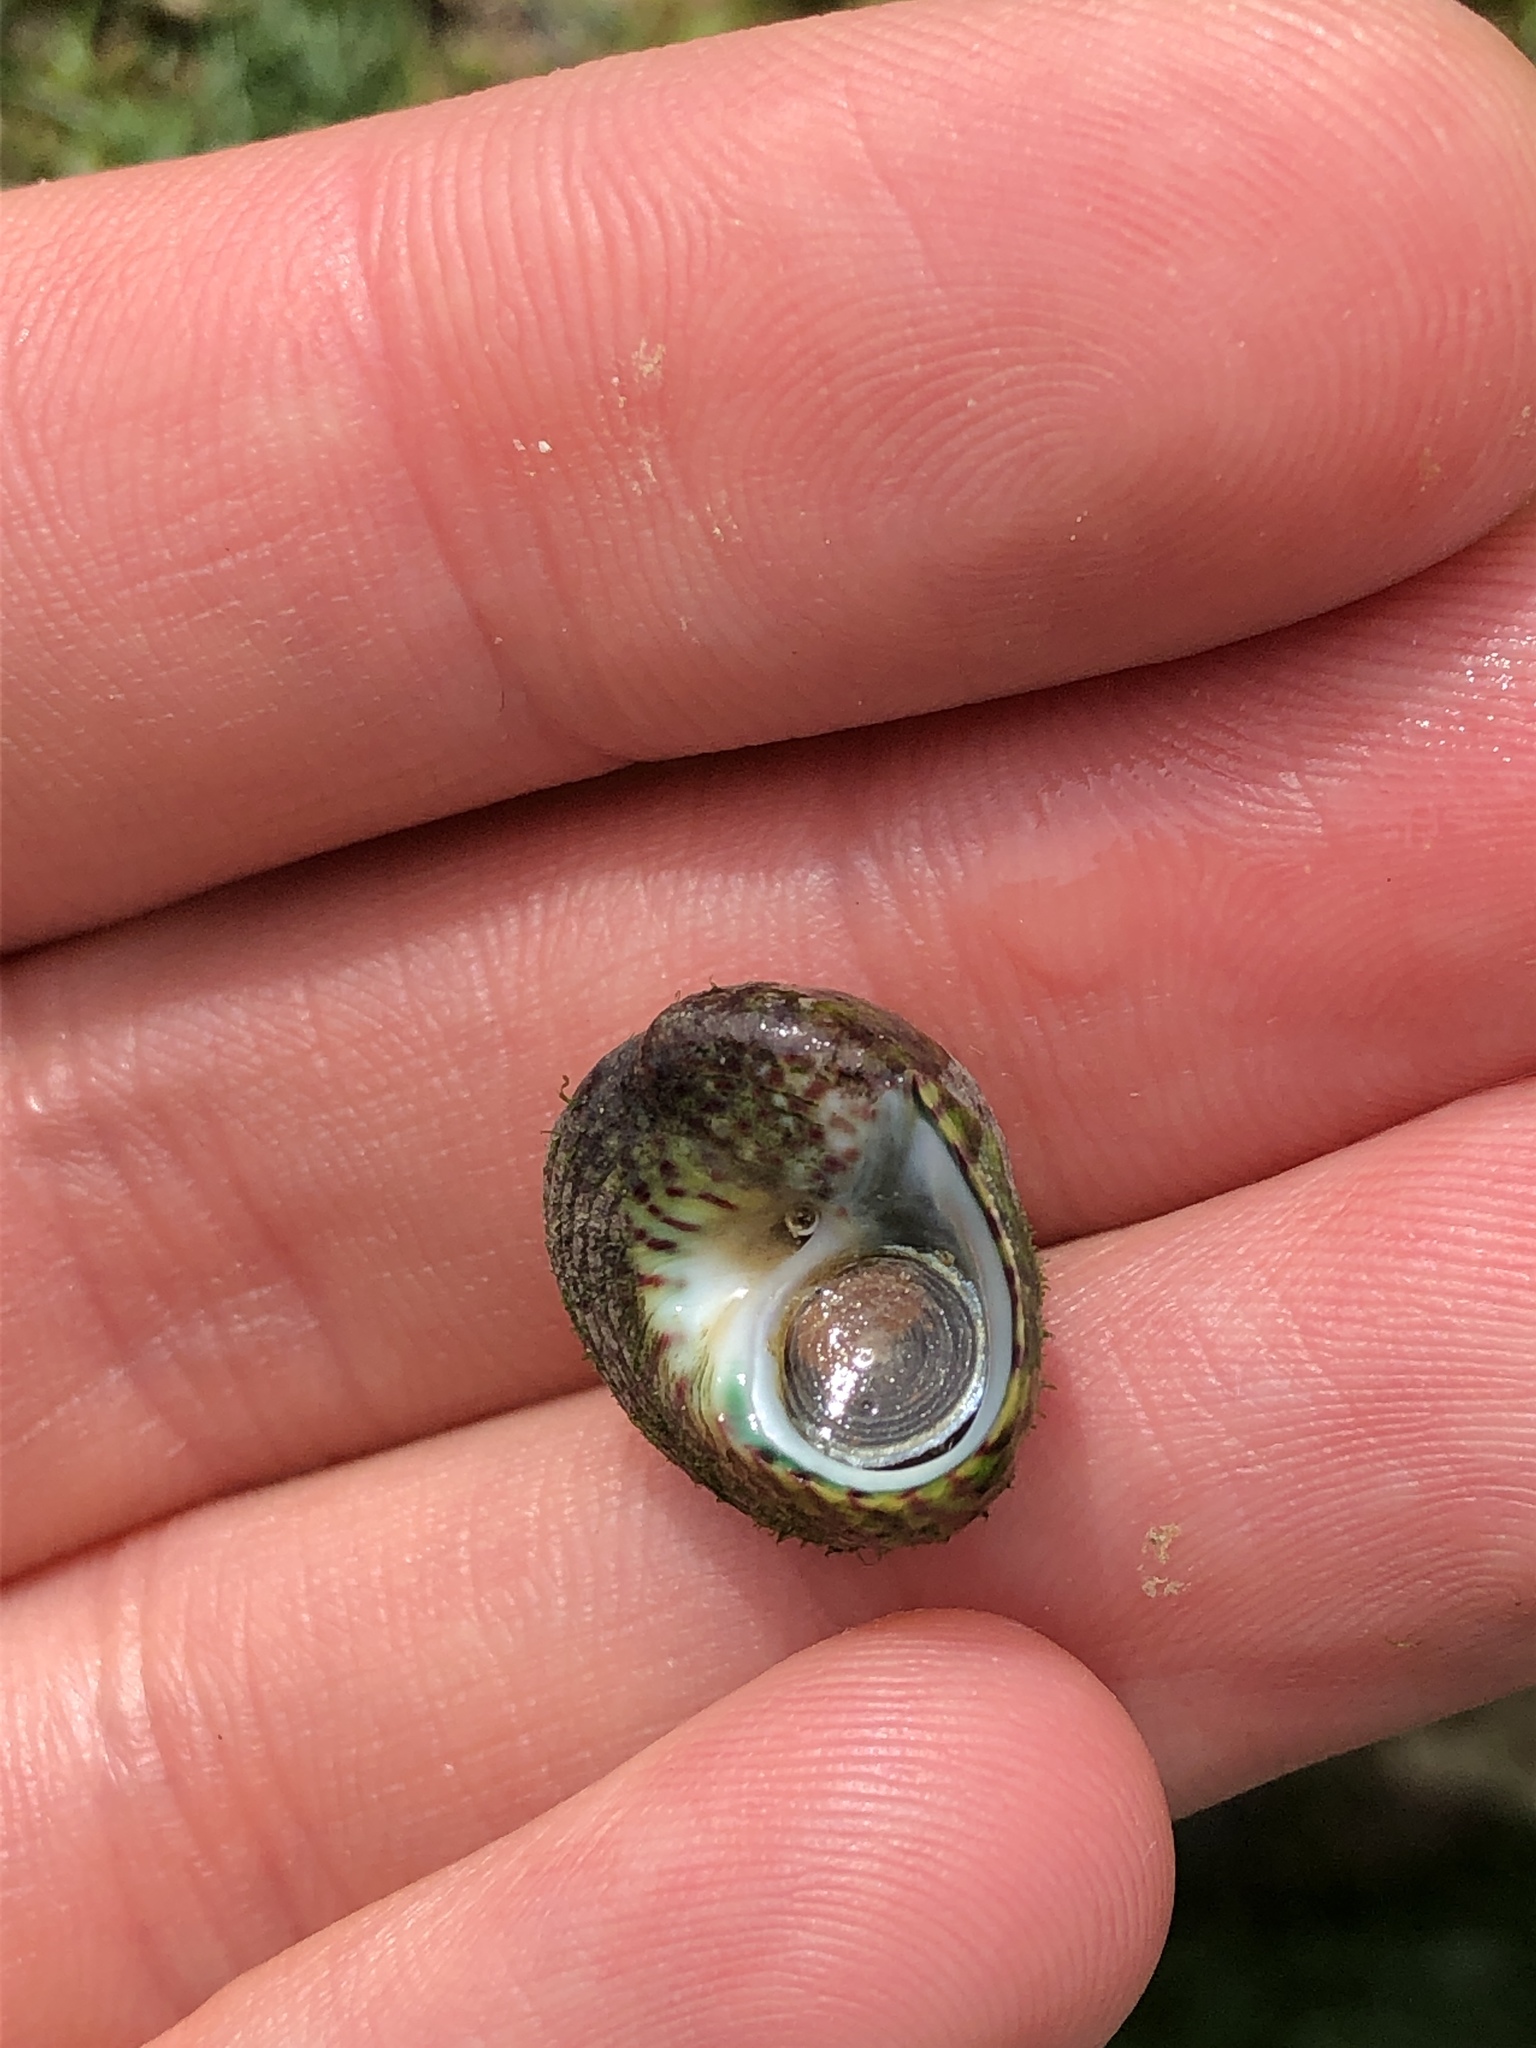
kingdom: Animalia
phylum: Mollusca
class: Gastropoda
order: Trochida
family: Trochidae
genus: Steromphala
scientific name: Steromphala umbilicalis
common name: Flat top shell
